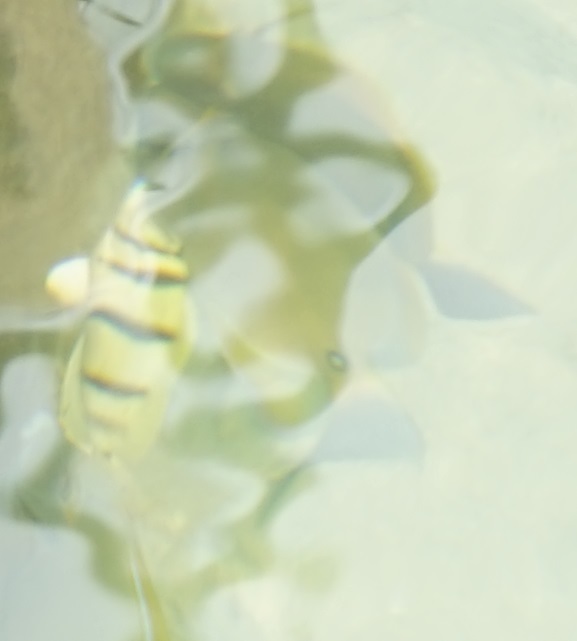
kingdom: Animalia
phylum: Chordata
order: Perciformes
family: Acanthuridae
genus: Acanthurus
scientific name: Acanthurus triostegus
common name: Convict surgeonfish
